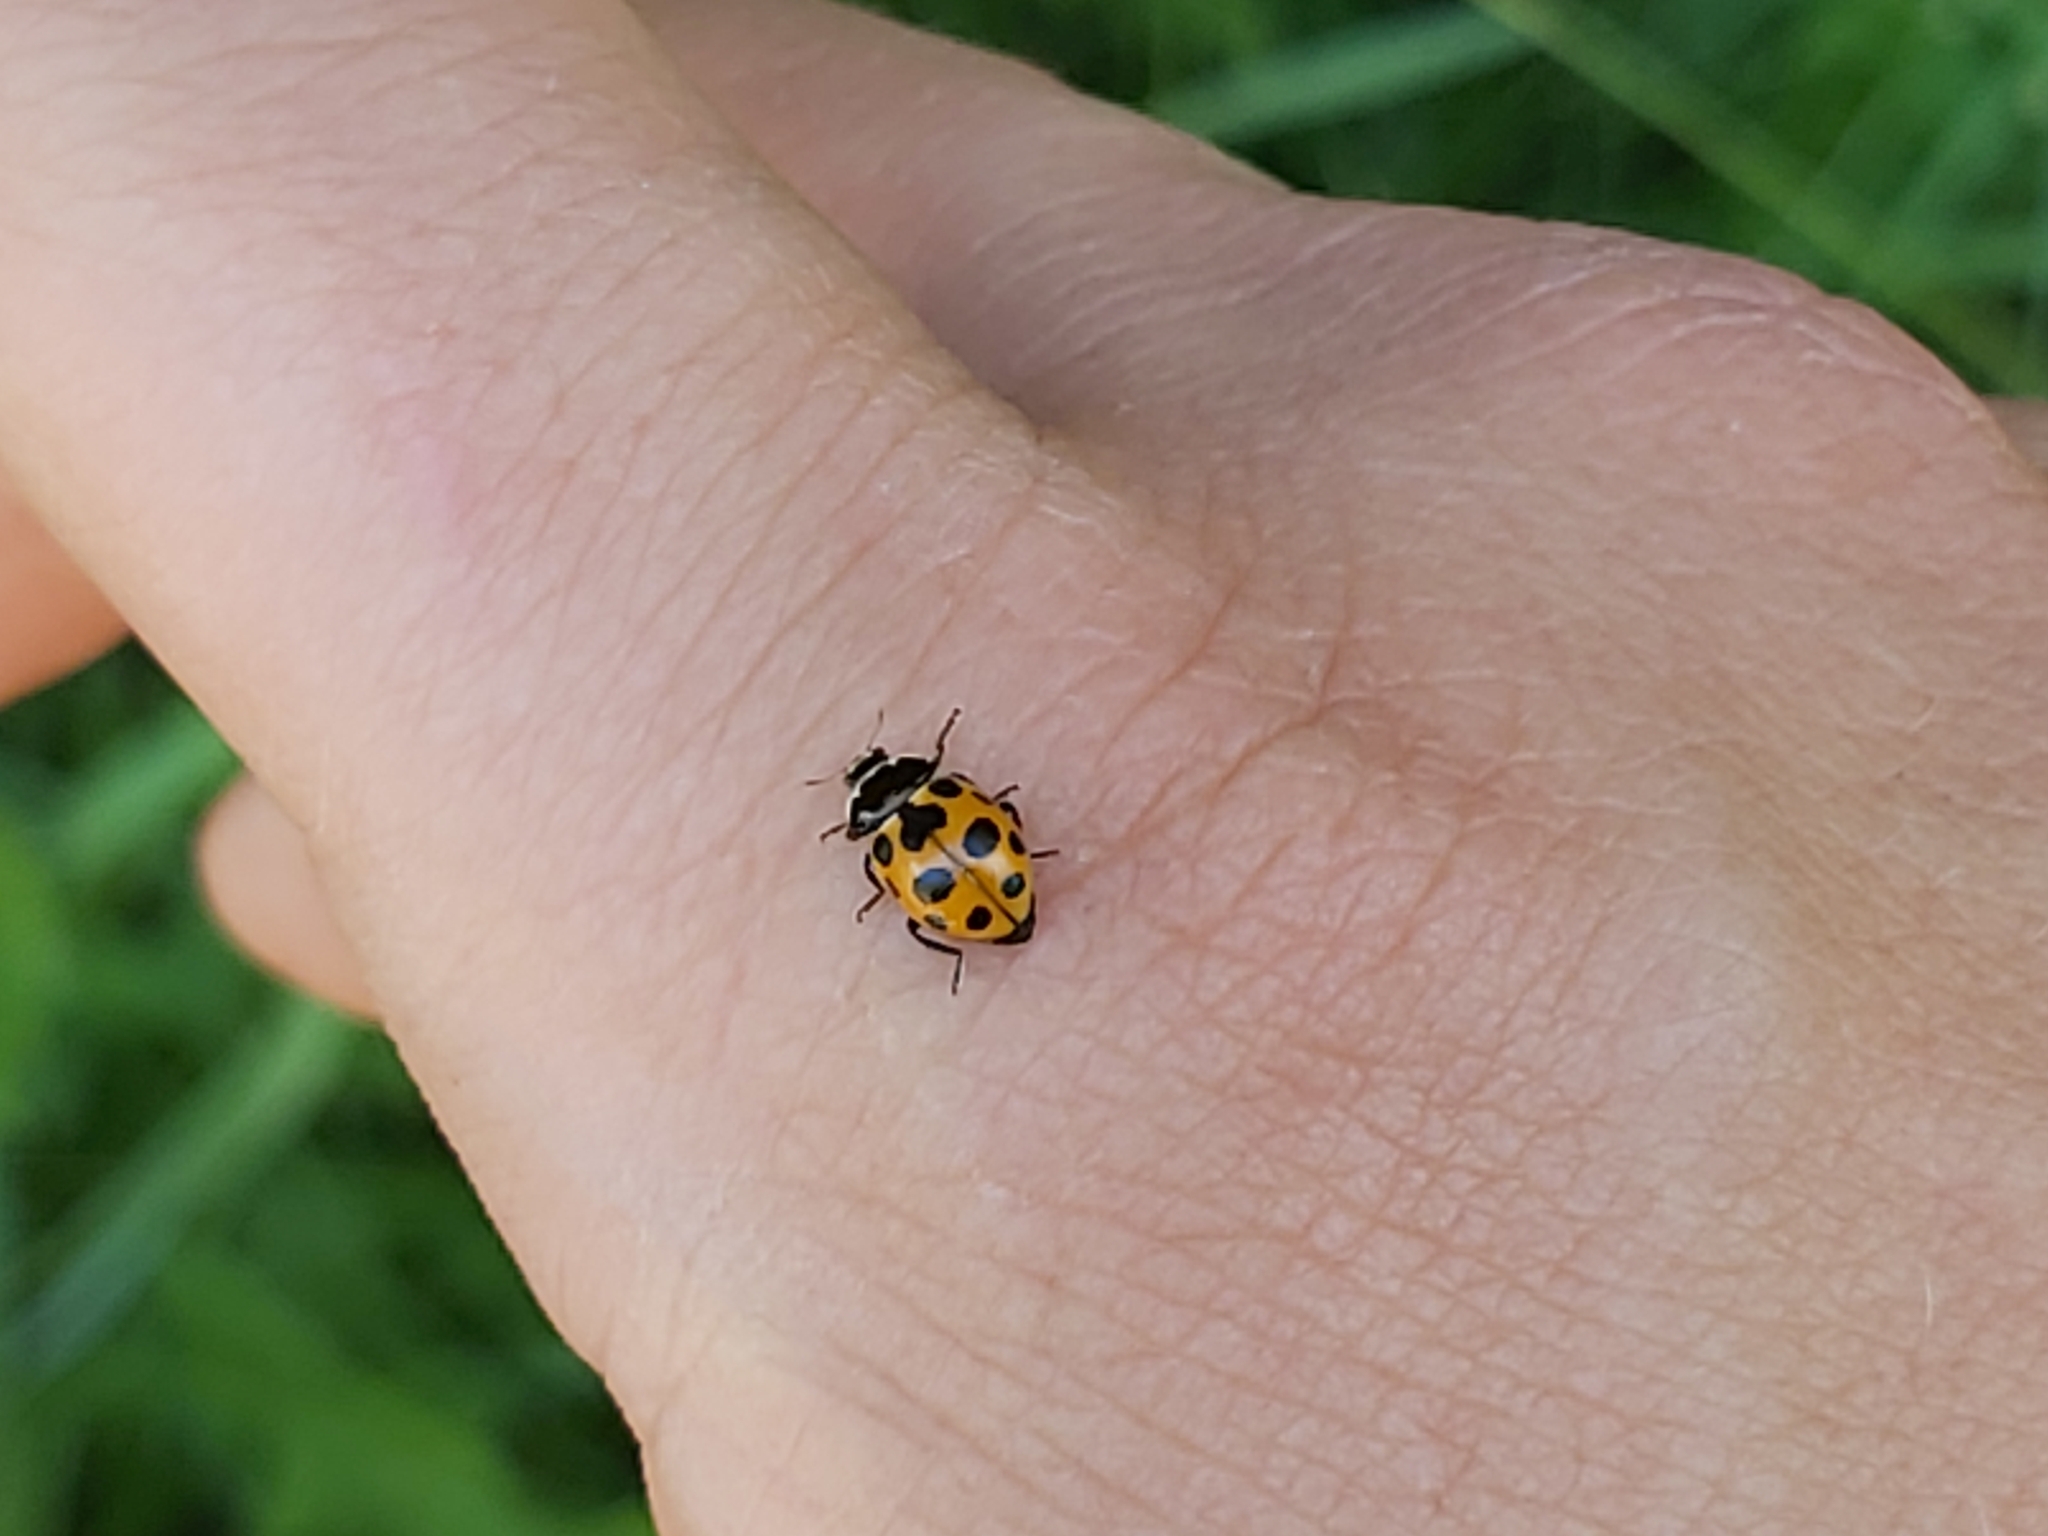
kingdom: Animalia
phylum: Arthropoda
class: Insecta
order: Coleoptera
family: Coccinellidae
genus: Ceratomegilla
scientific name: Ceratomegilla notata
